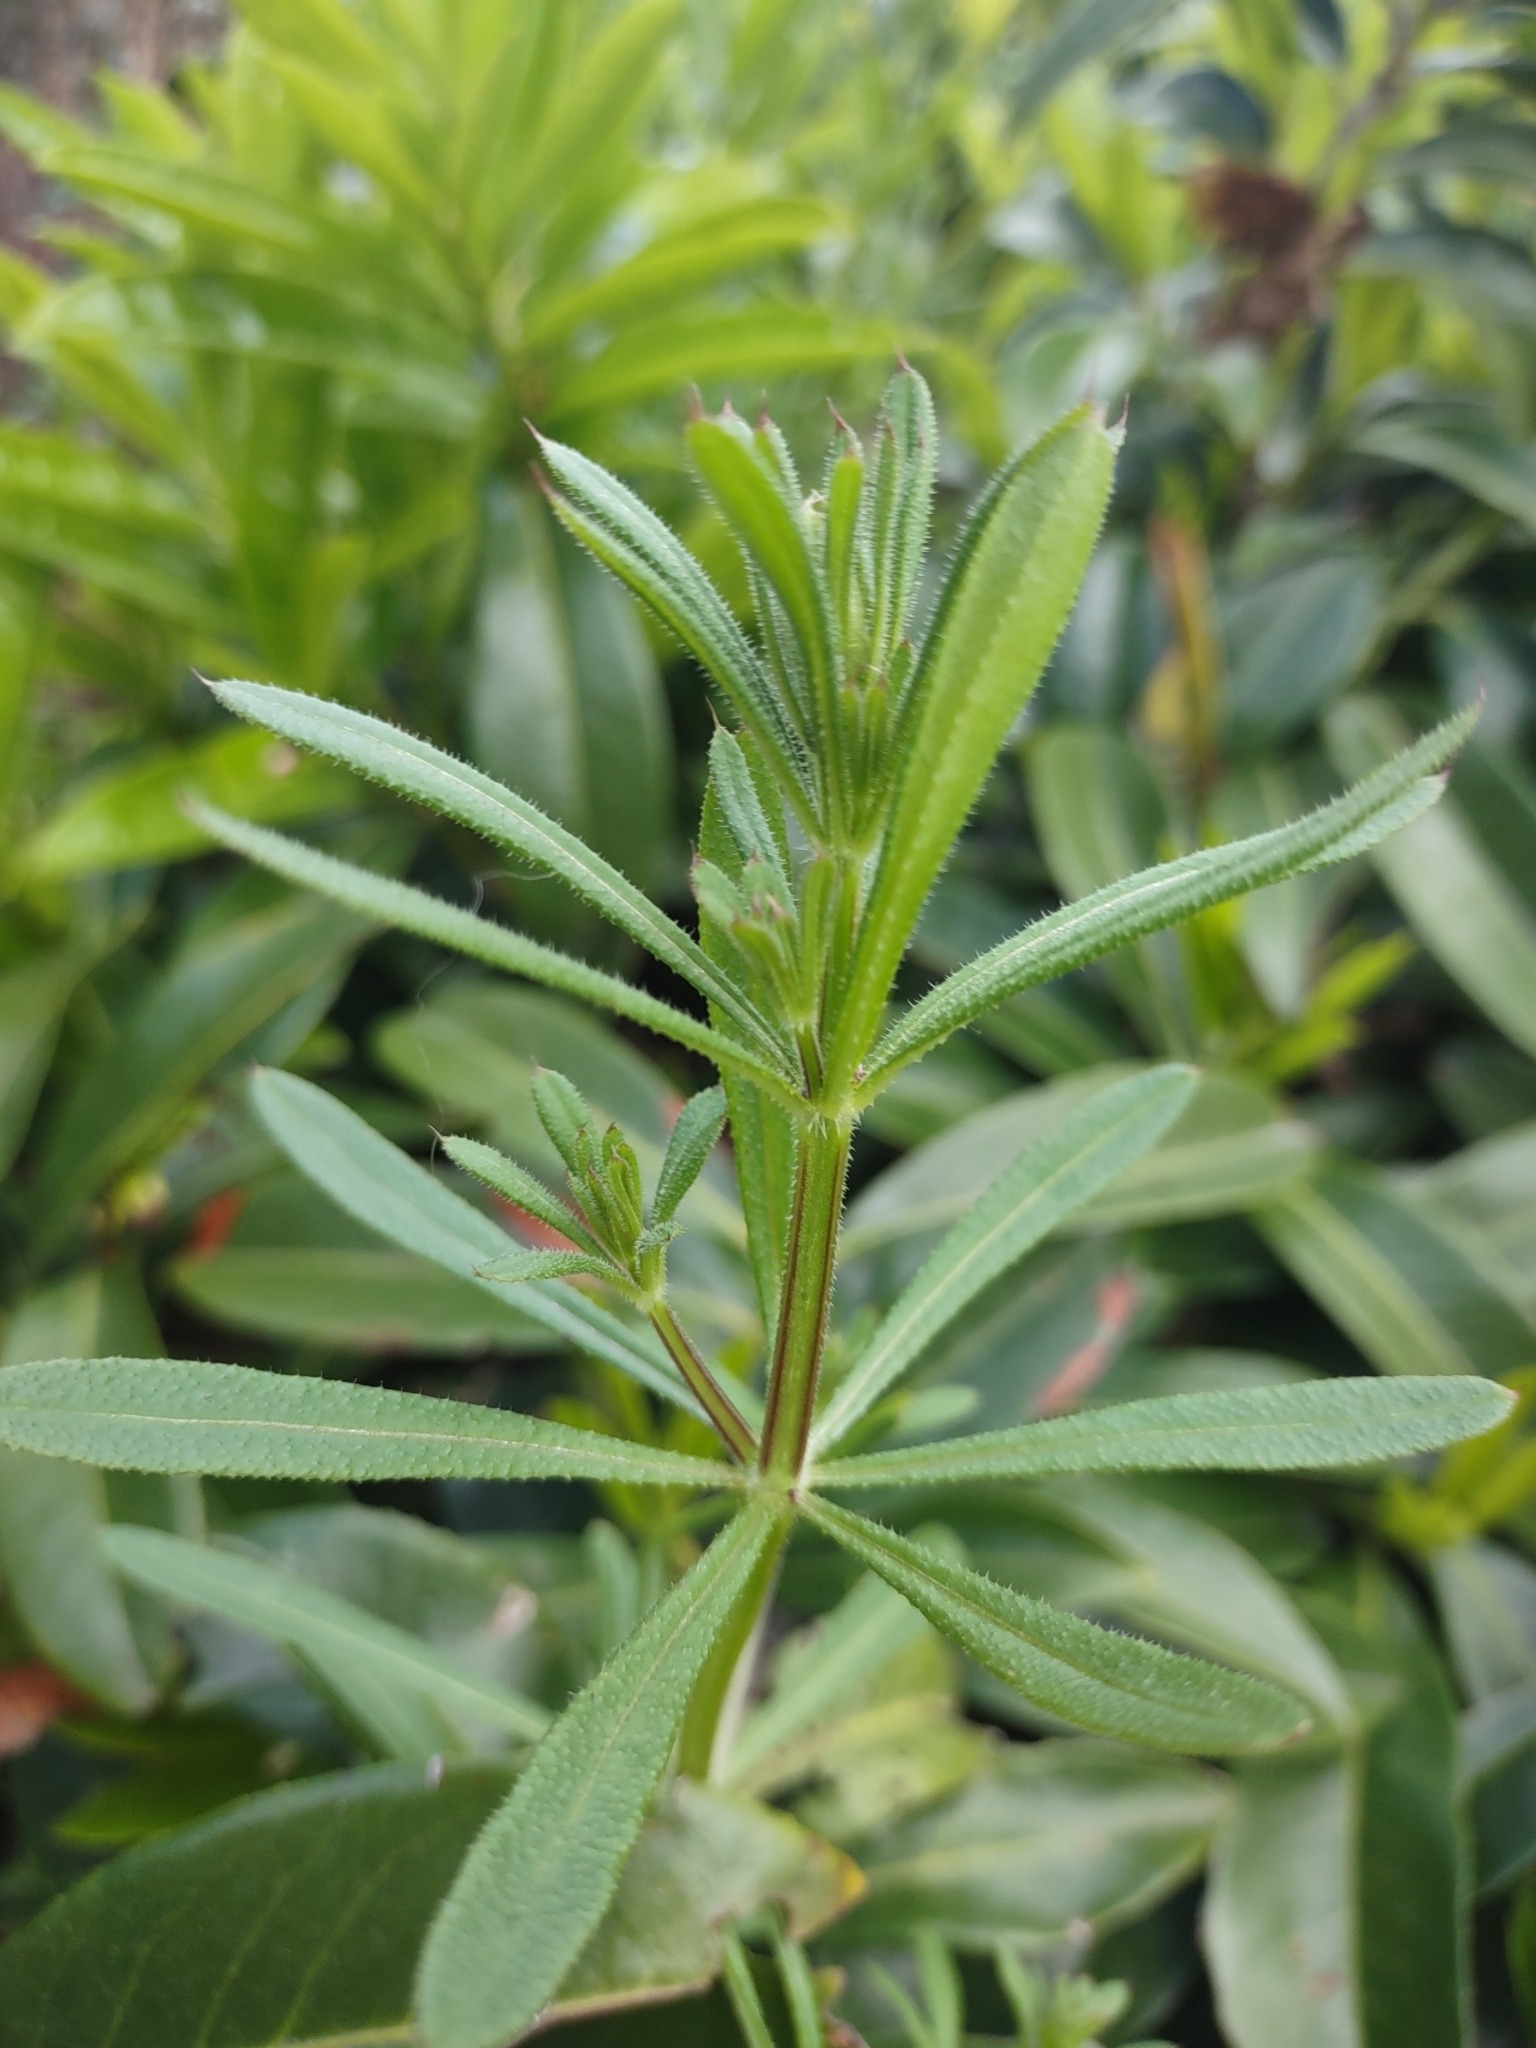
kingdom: Plantae
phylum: Tracheophyta
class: Magnoliopsida
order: Gentianales
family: Rubiaceae
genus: Galium
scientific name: Galium aparine
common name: Cleavers
